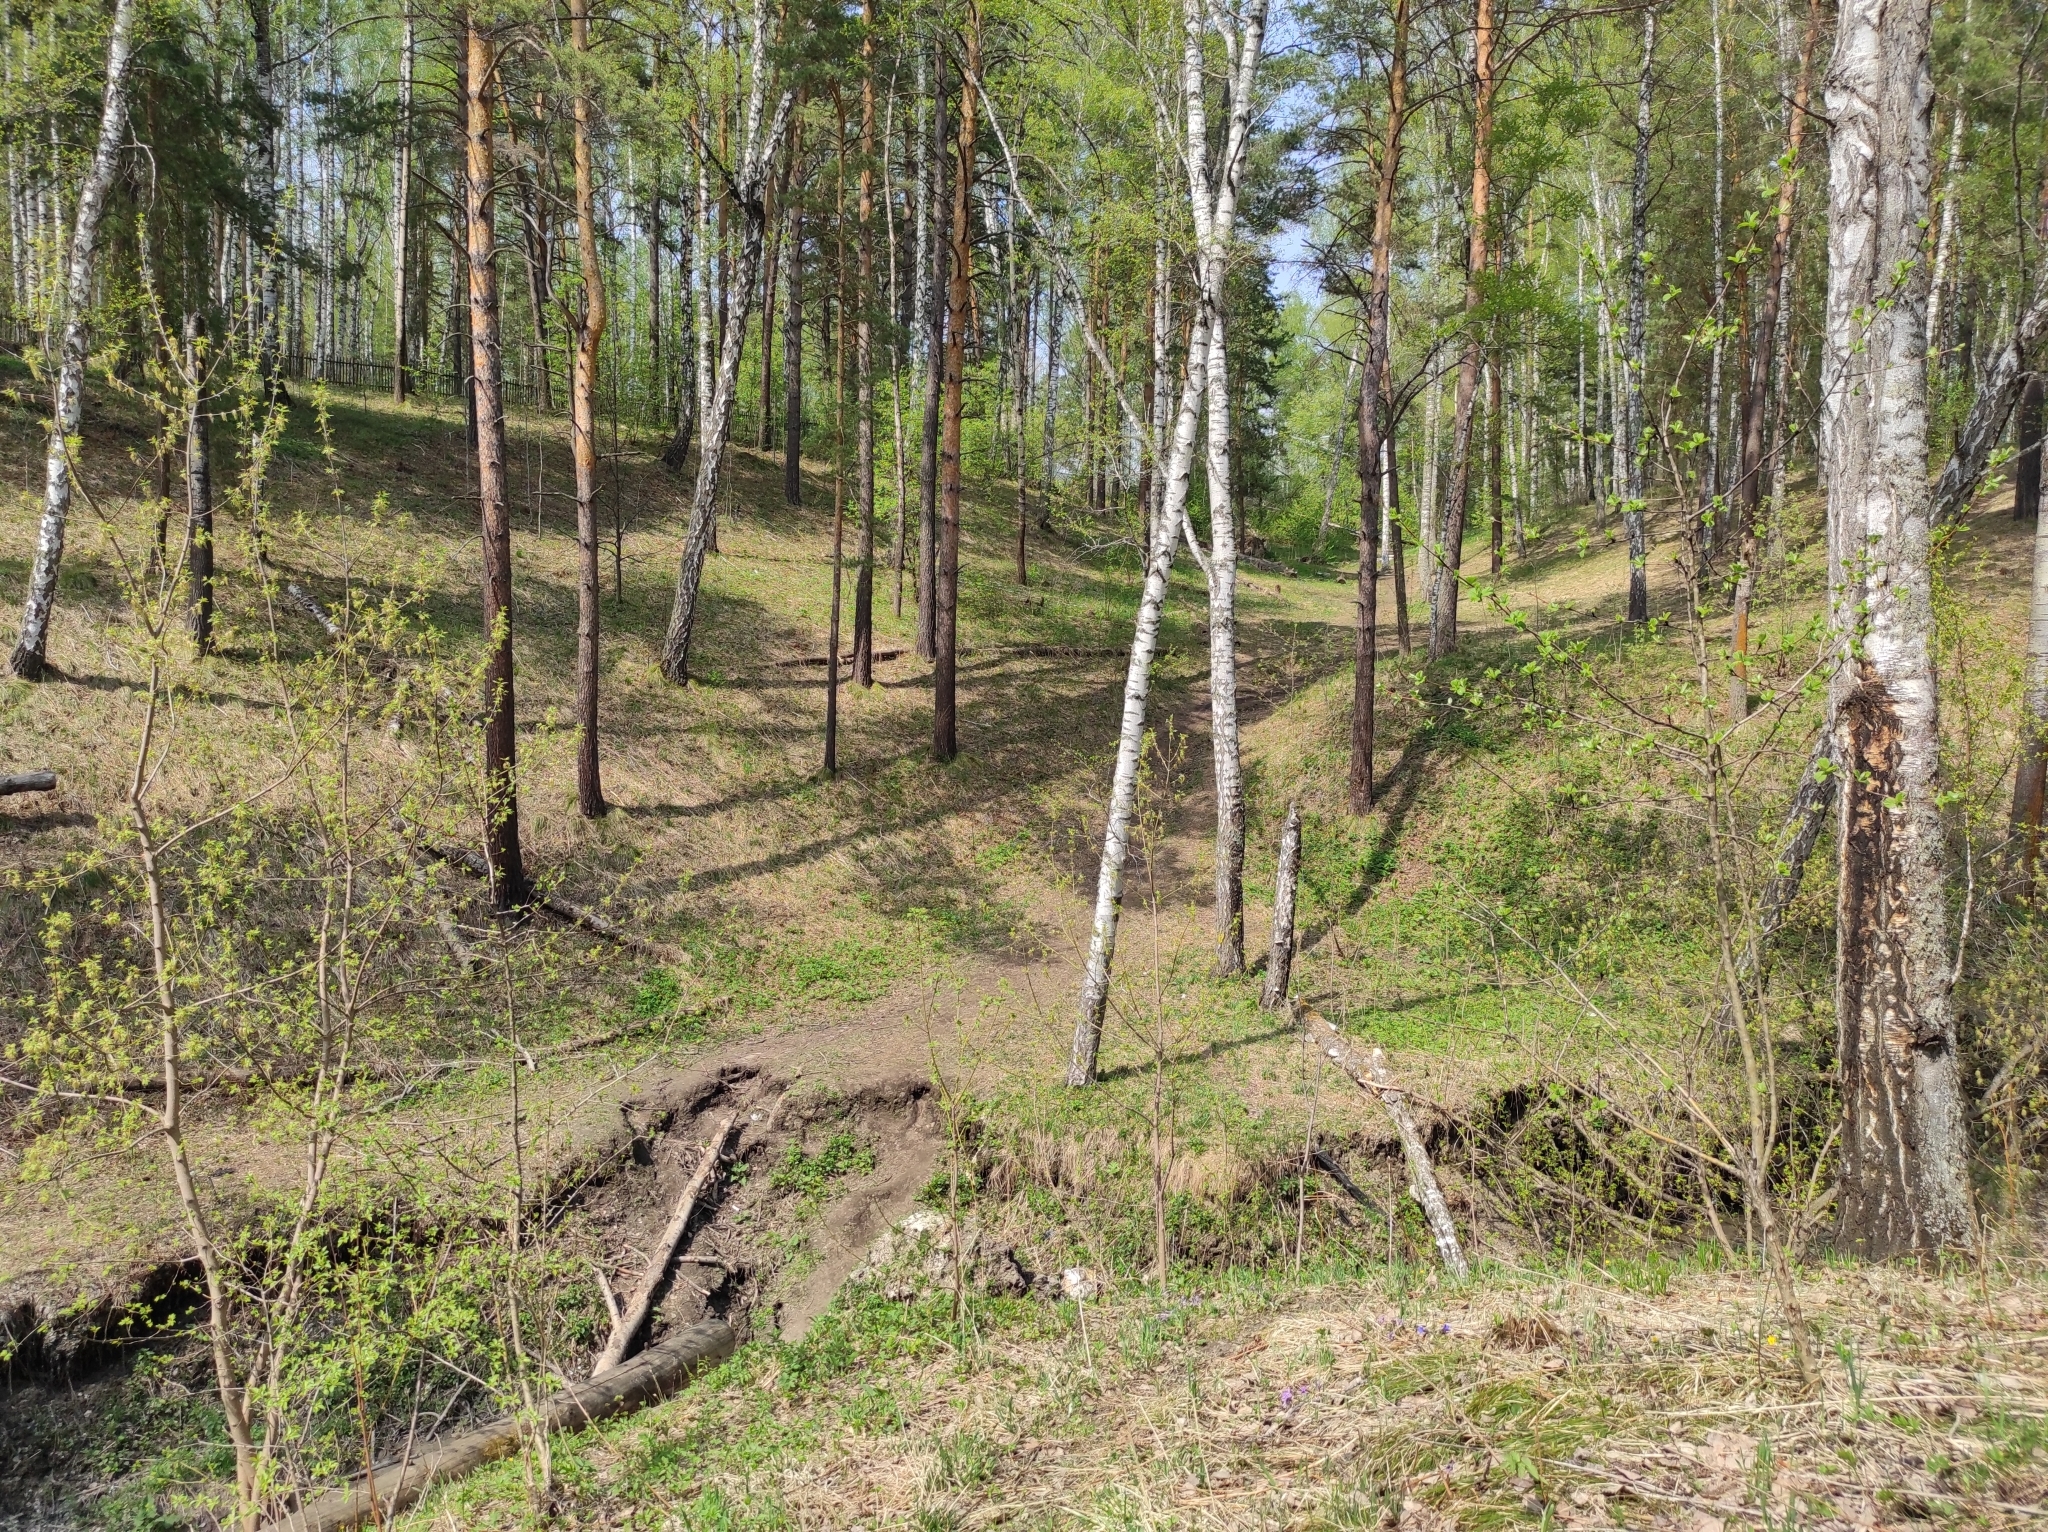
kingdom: Plantae
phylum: Tracheophyta
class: Pinopsida
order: Pinales
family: Pinaceae
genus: Pinus
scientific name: Pinus sylvestris
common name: Scots pine
